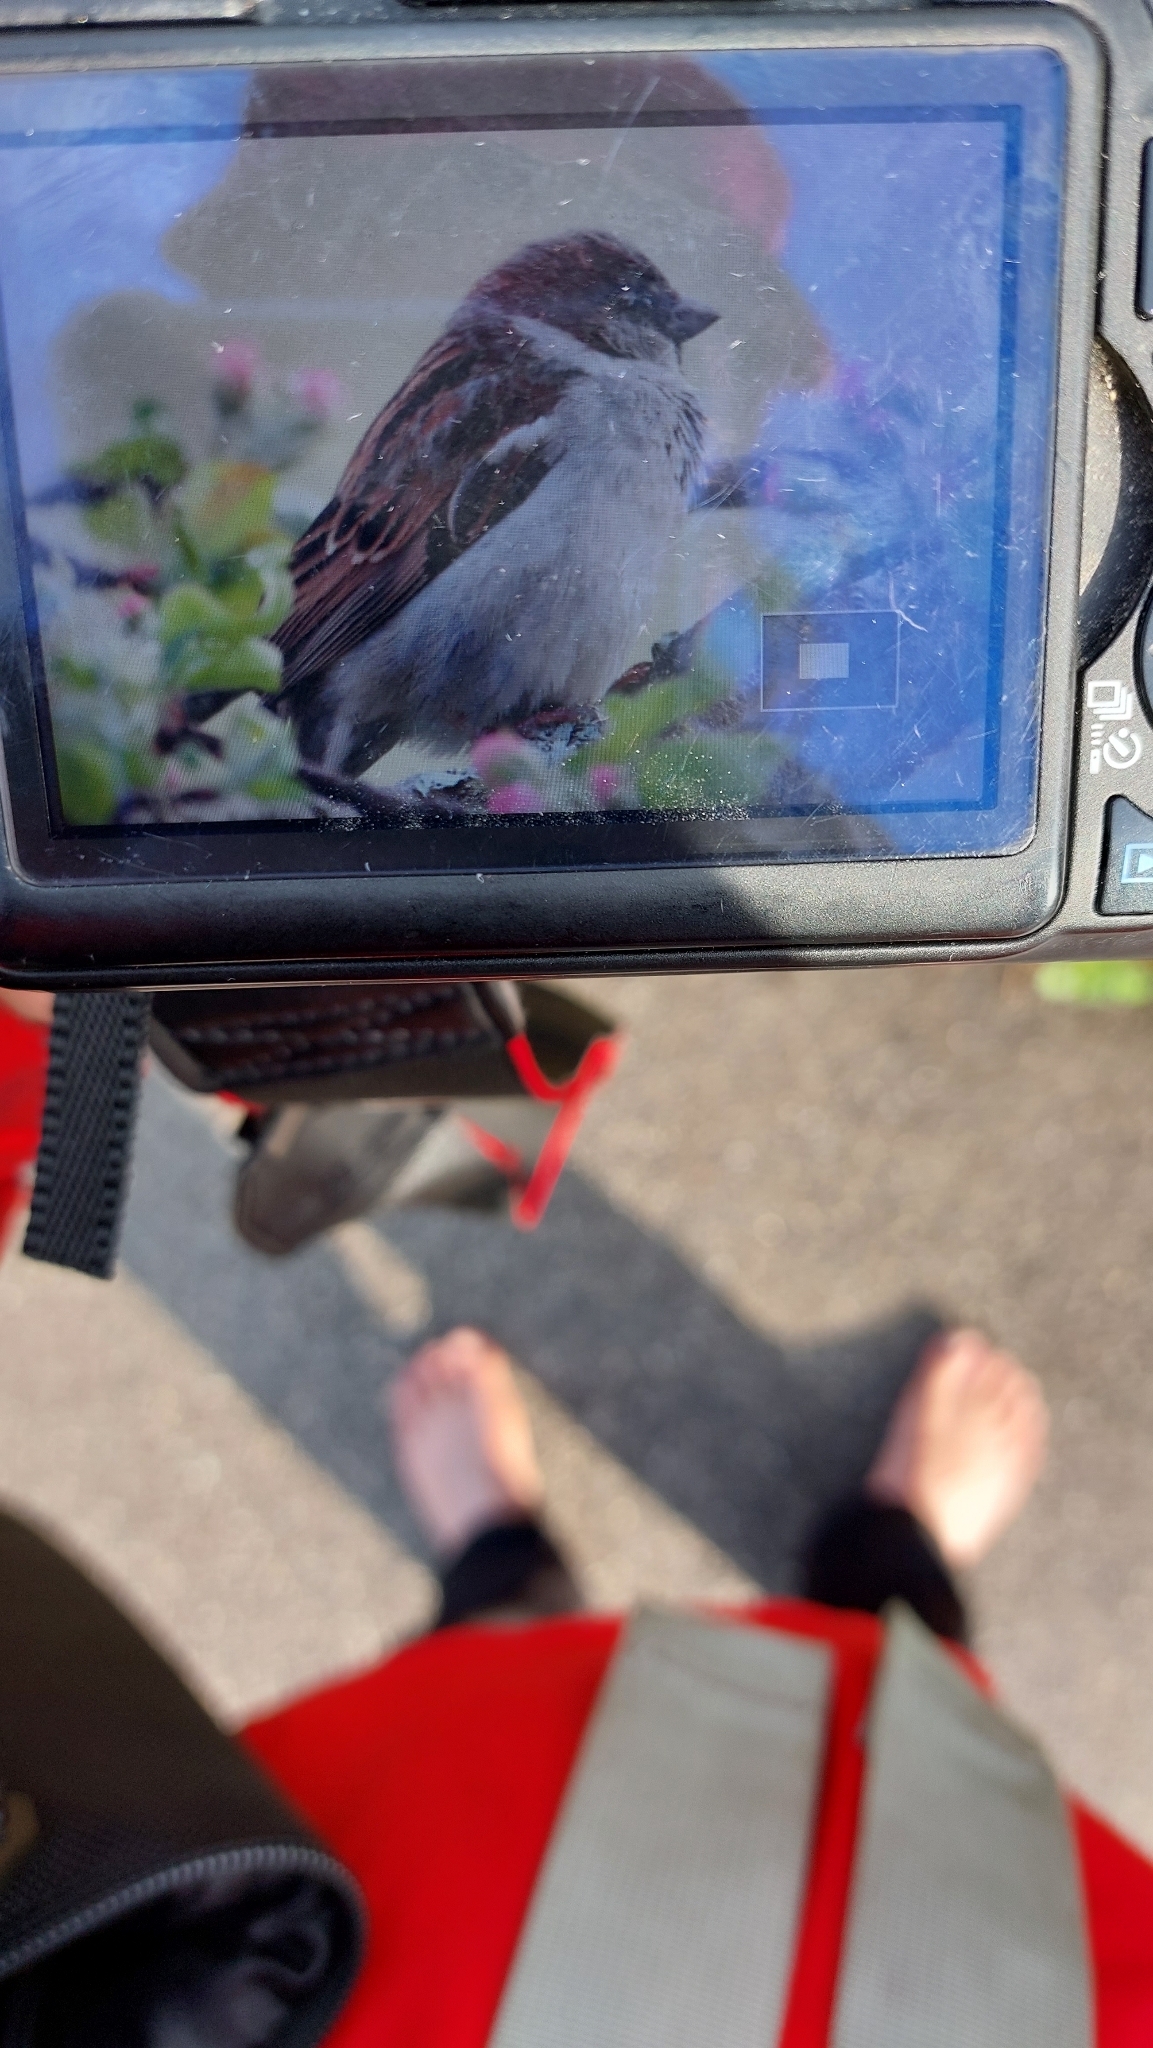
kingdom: Animalia
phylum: Chordata
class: Aves
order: Passeriformes
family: Passeridae
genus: Passer
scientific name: Passer domesticus
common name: House sparrow
